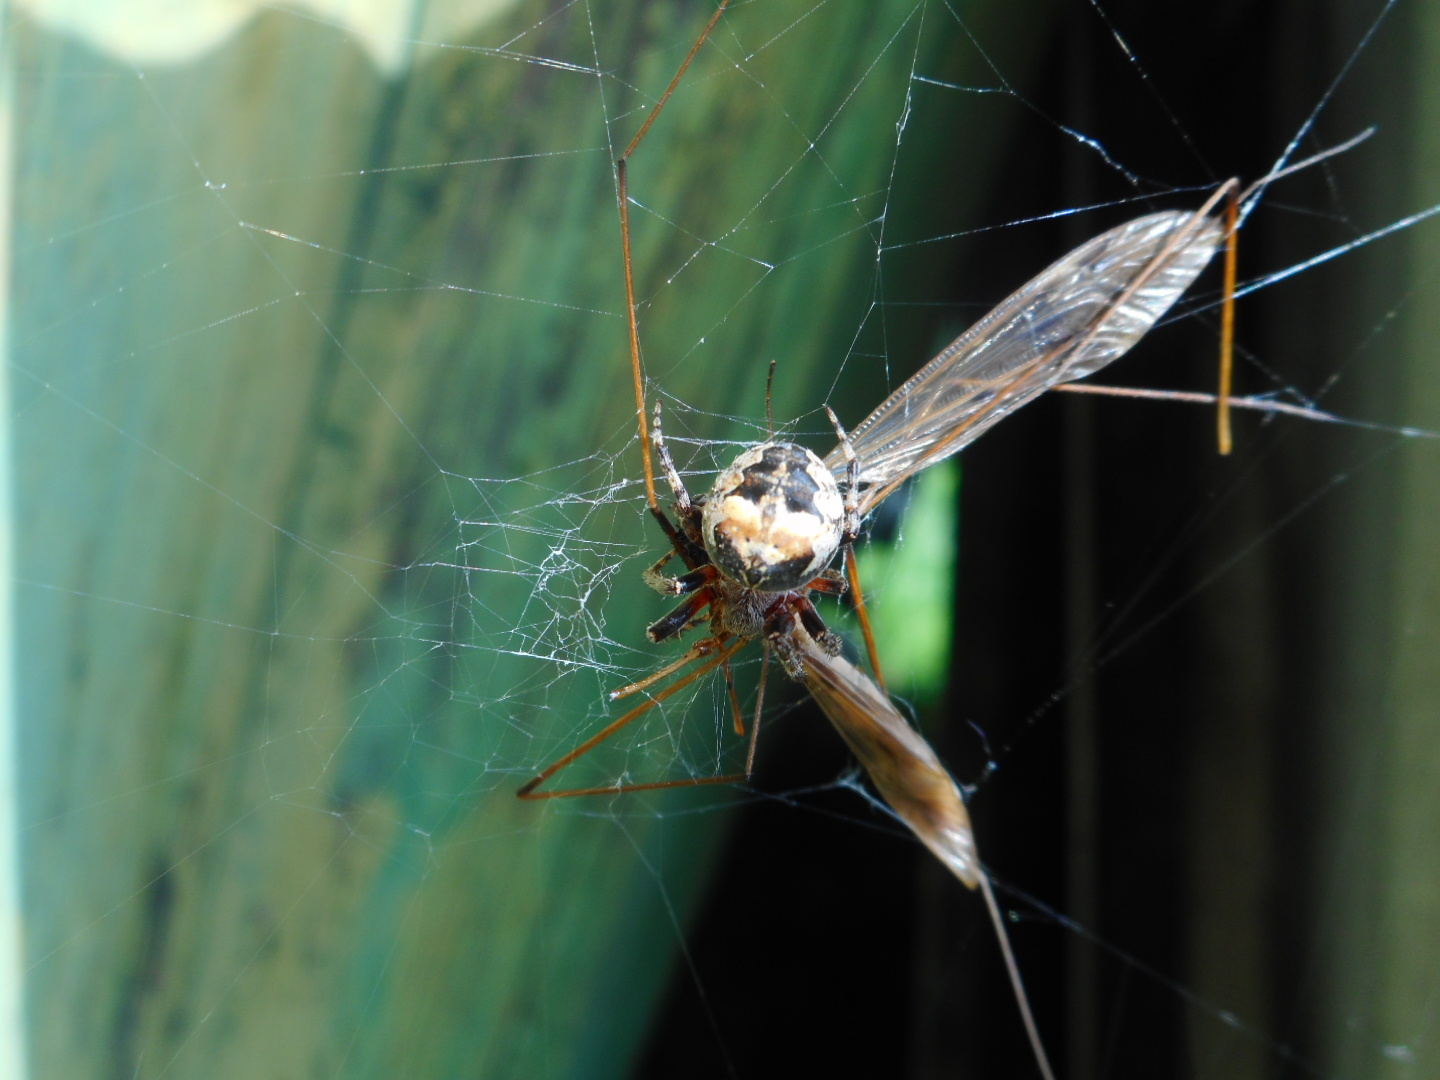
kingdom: Animalia
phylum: Arthropoda
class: Arachnida
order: Araneae
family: Araneidae
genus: Larinioides
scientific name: Larinioides patagiatus
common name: Ornamental orbweaver
